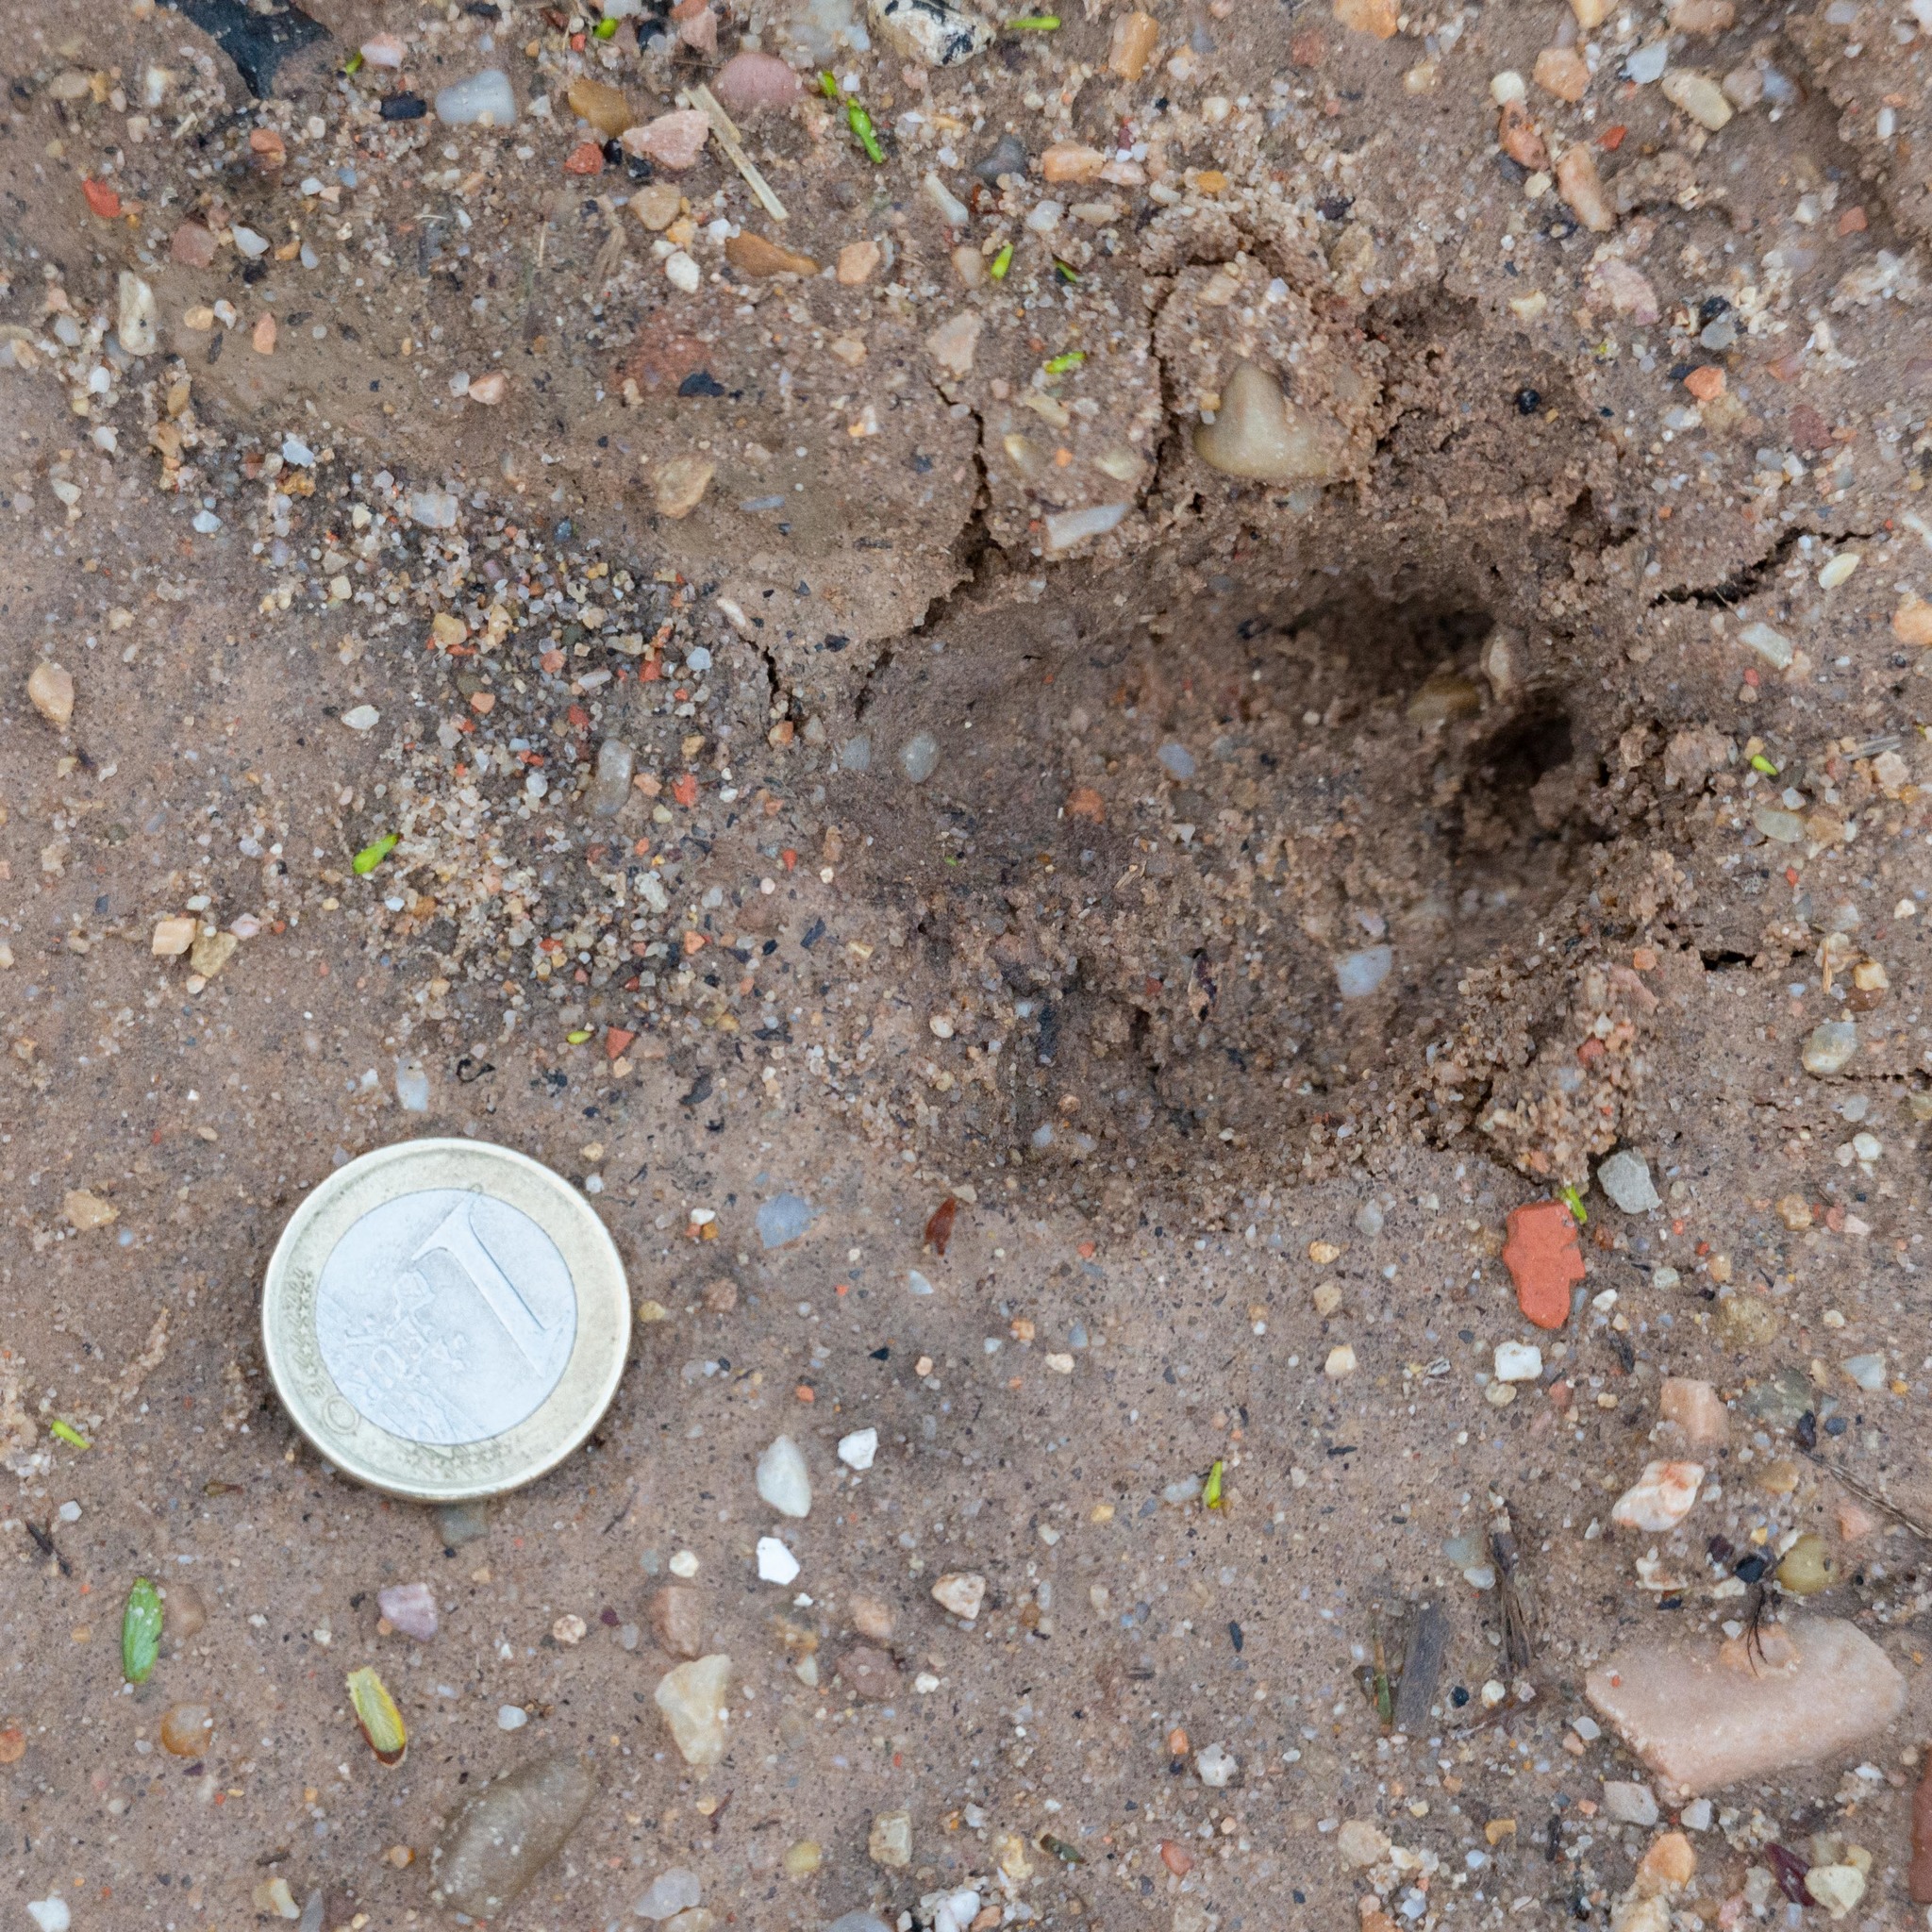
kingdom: Animalia
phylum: Chordata
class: Mammalia
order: Artiodactyla
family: Cervidae
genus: Capreolus
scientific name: Capreolus capreolus
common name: Western roe deer
